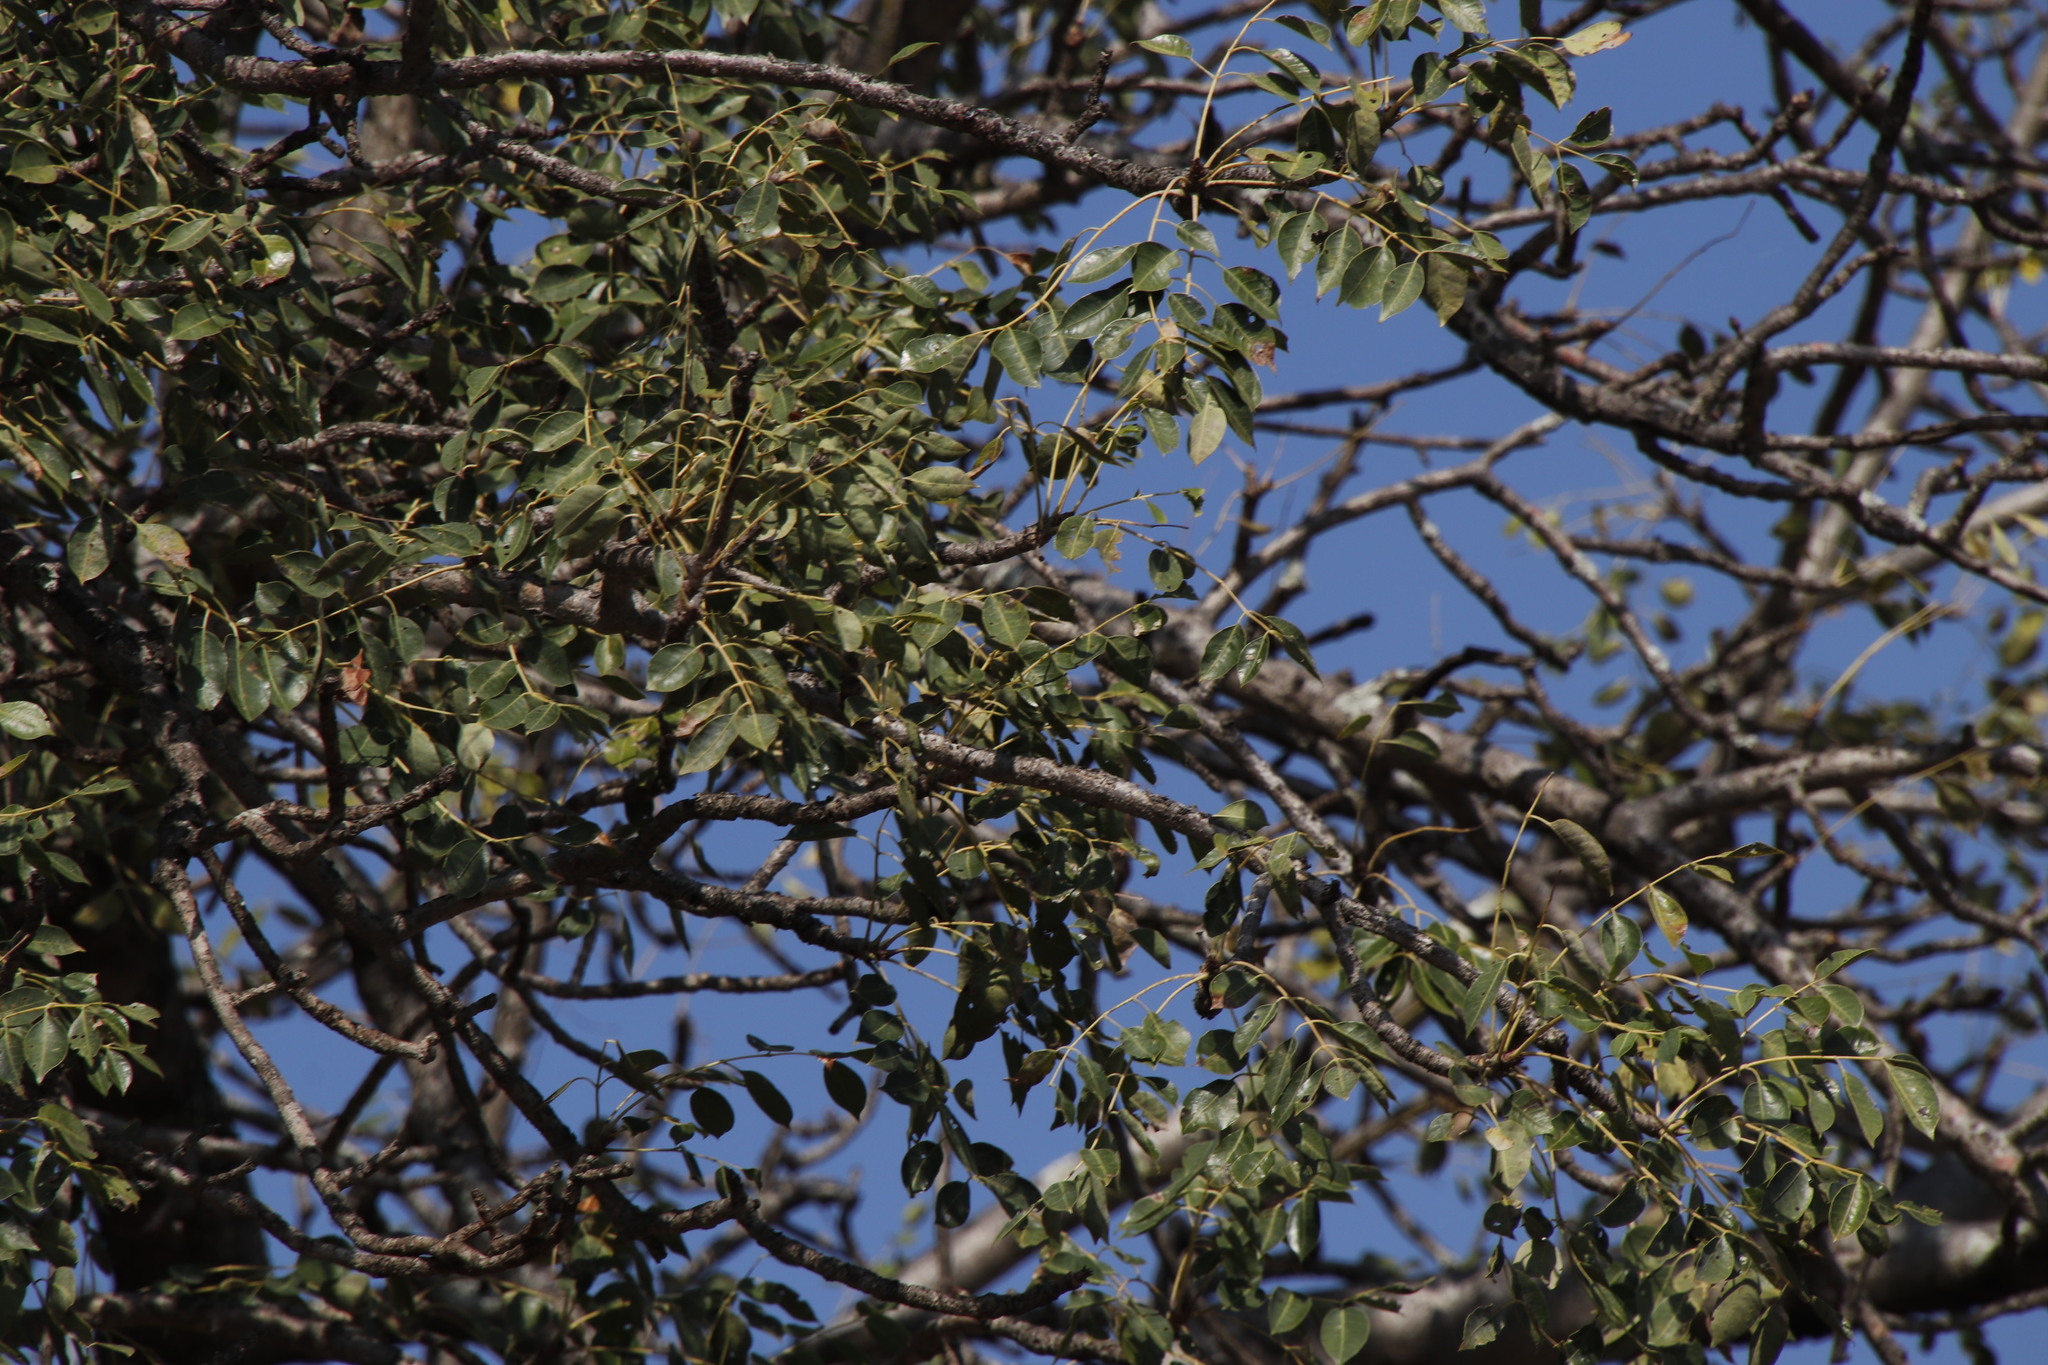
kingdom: Plantae
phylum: Tracheophyta
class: Magnoliopsida
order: Sapindales
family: Anacardiaceae
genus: Sclerocarya
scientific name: Sclerocarya birrea
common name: Marula
